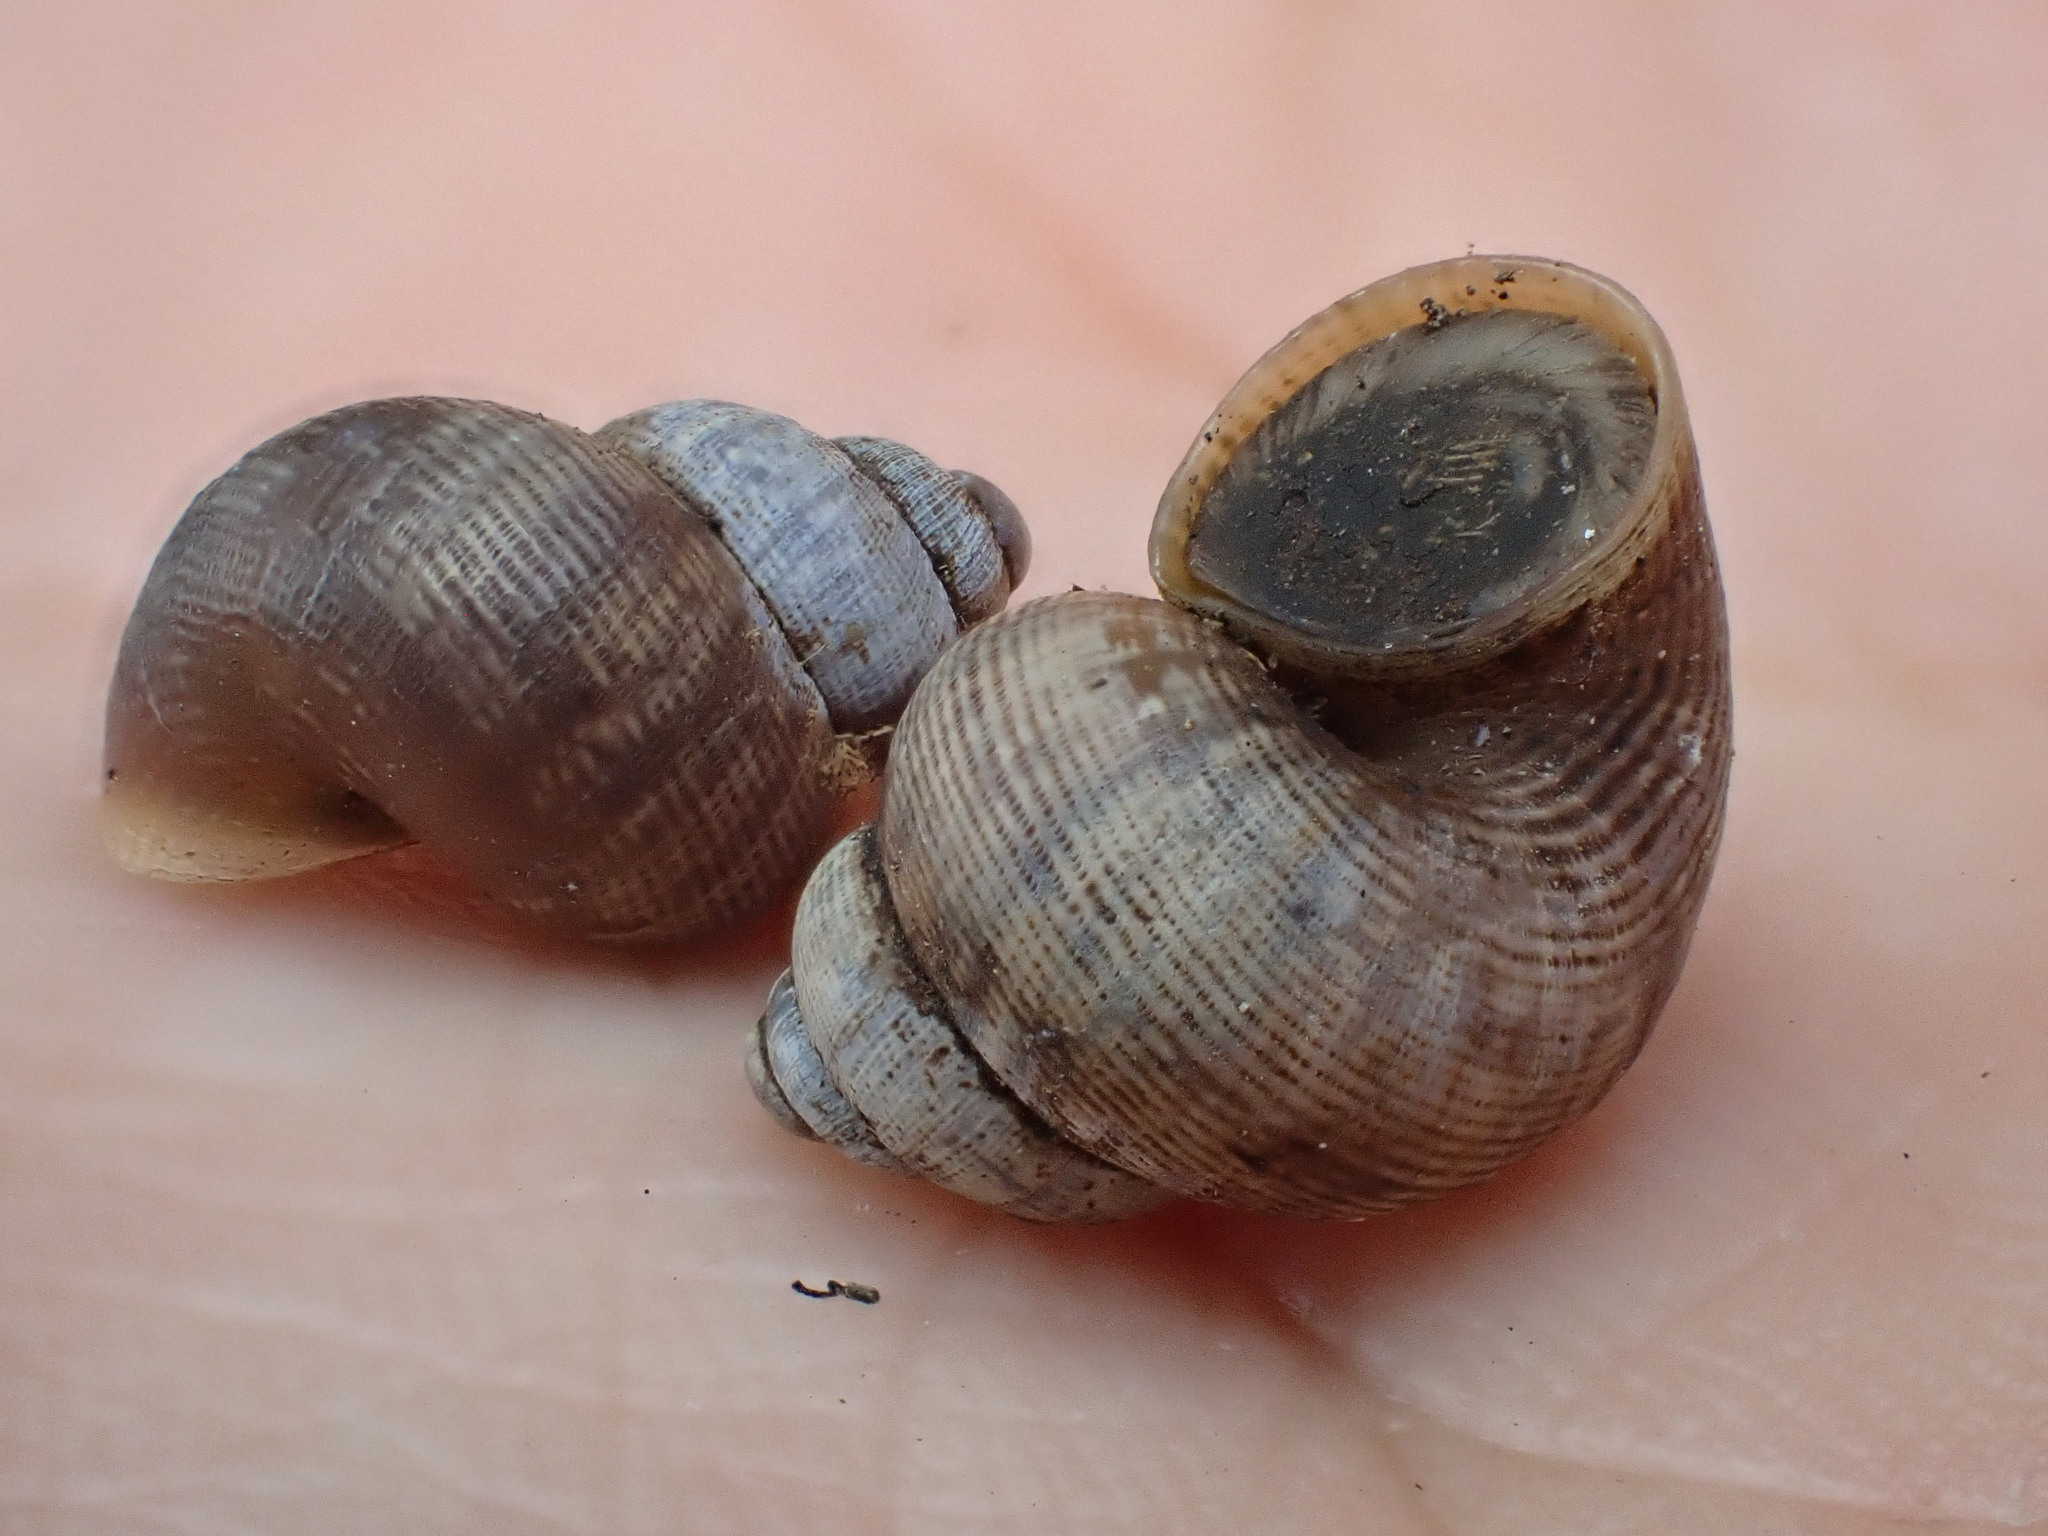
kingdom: Animalia
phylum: Mollusca
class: Gastropoda
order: Littorinimorpha
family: Pomatiidae
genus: Pomatias
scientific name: Pomatias elegans
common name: Red-mouthed snail
